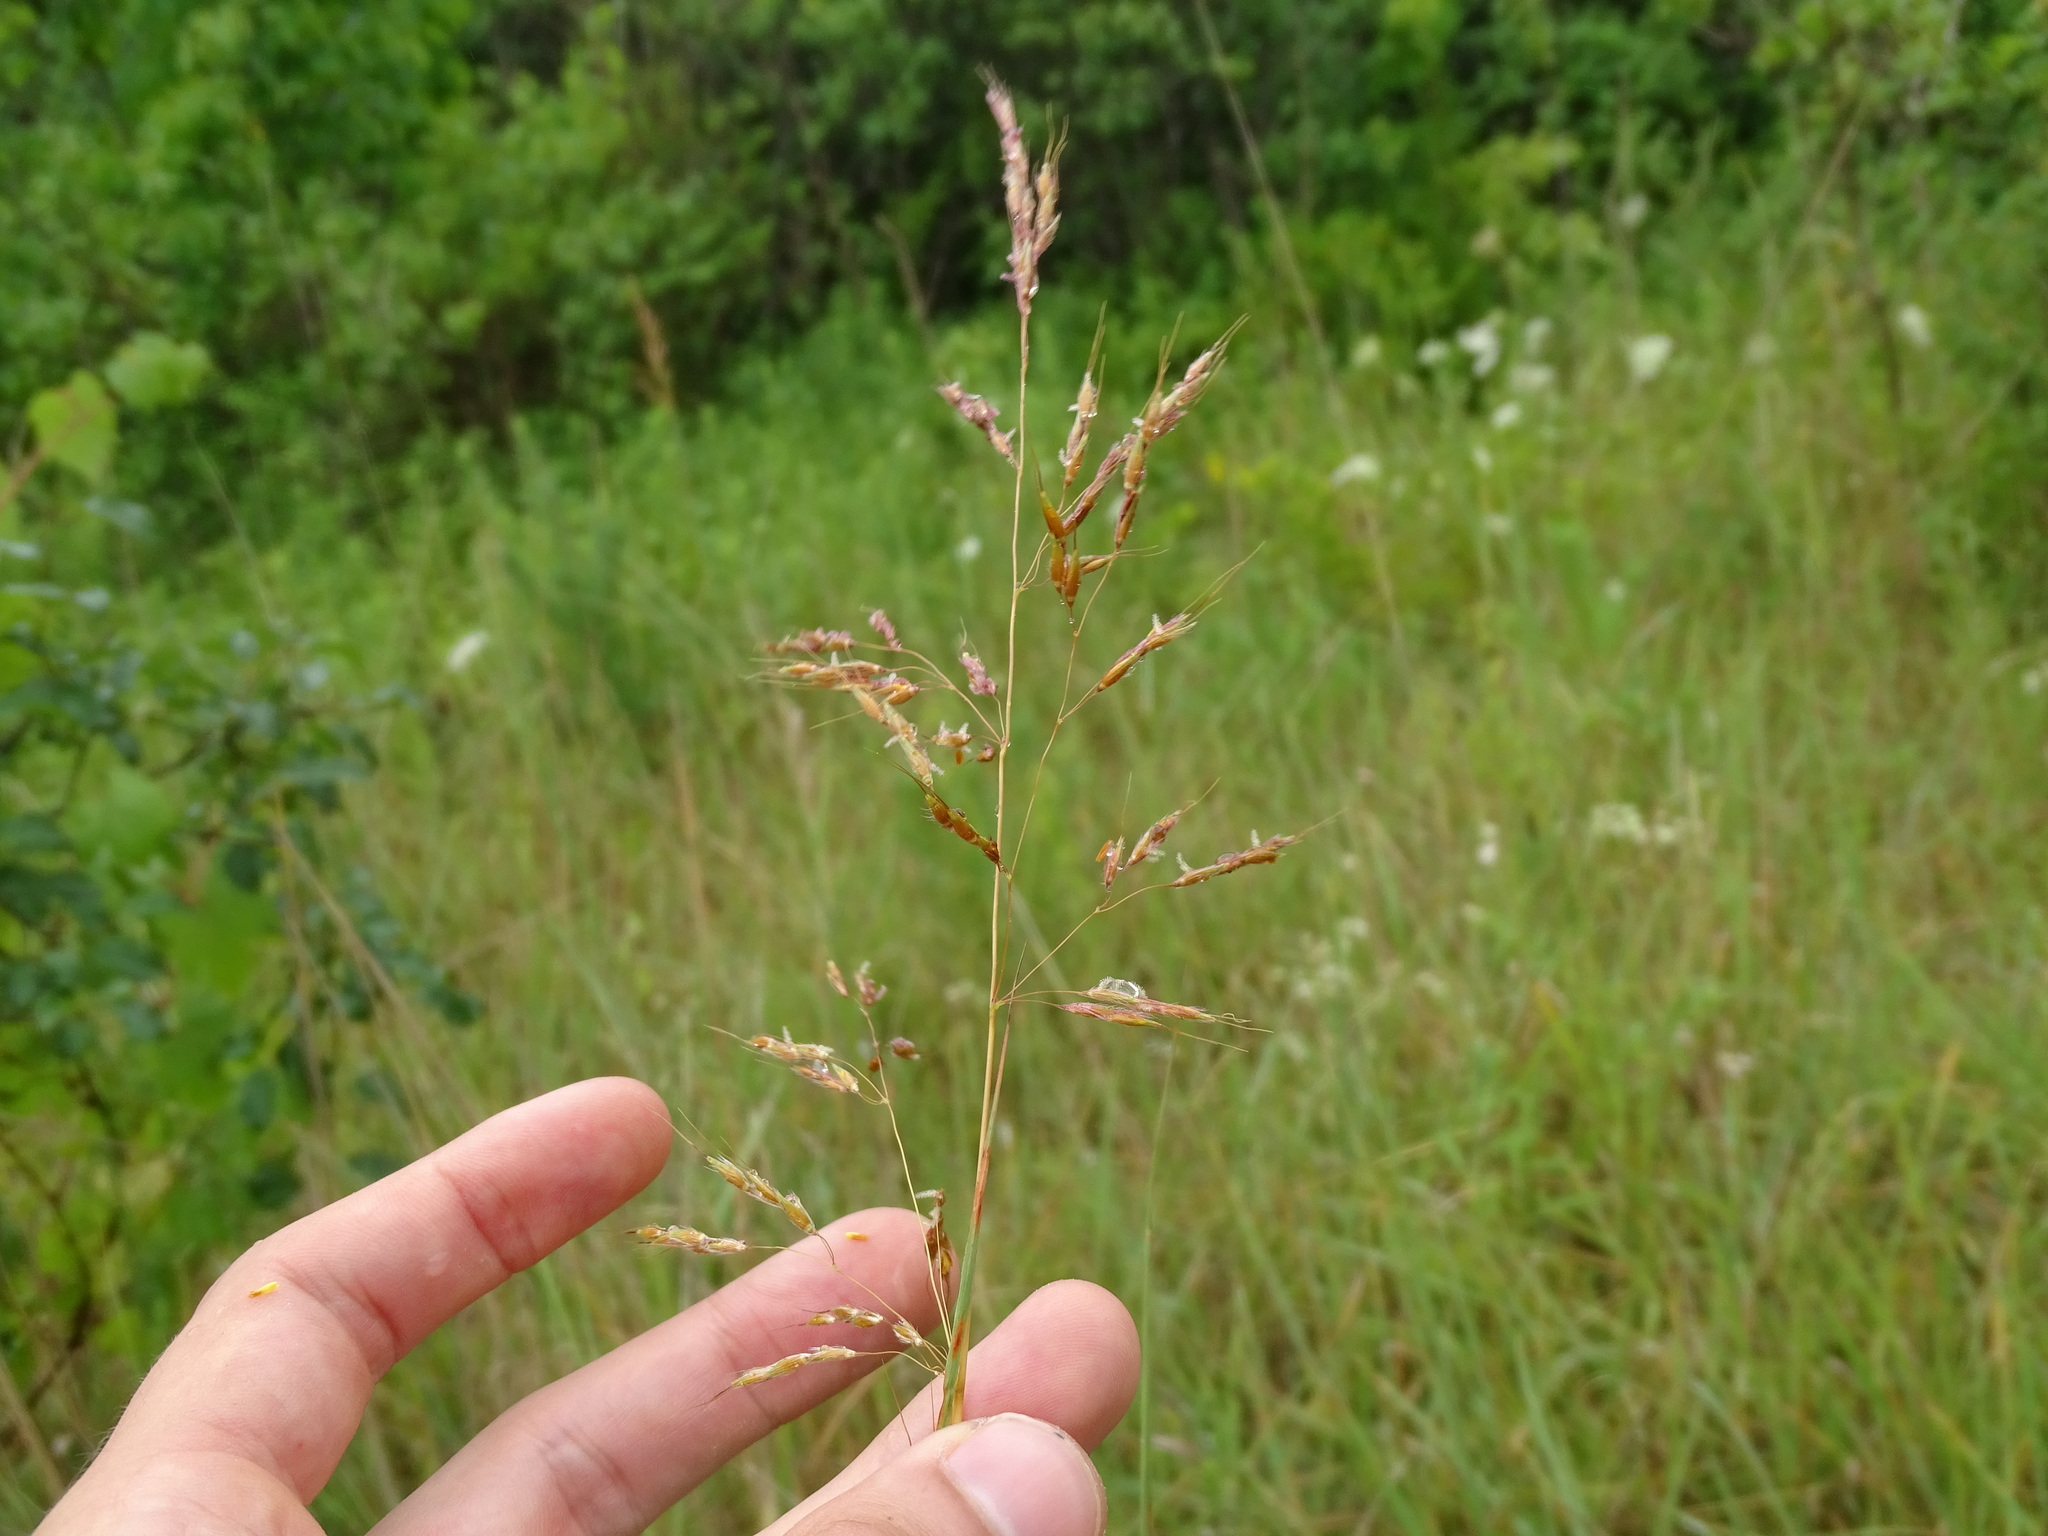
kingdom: Plantae
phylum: Tracheophyta
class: Liliopsida
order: Poales
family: Poaceae
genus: Sorghastrum
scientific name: Sorghastrum nutans
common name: Indian grass
